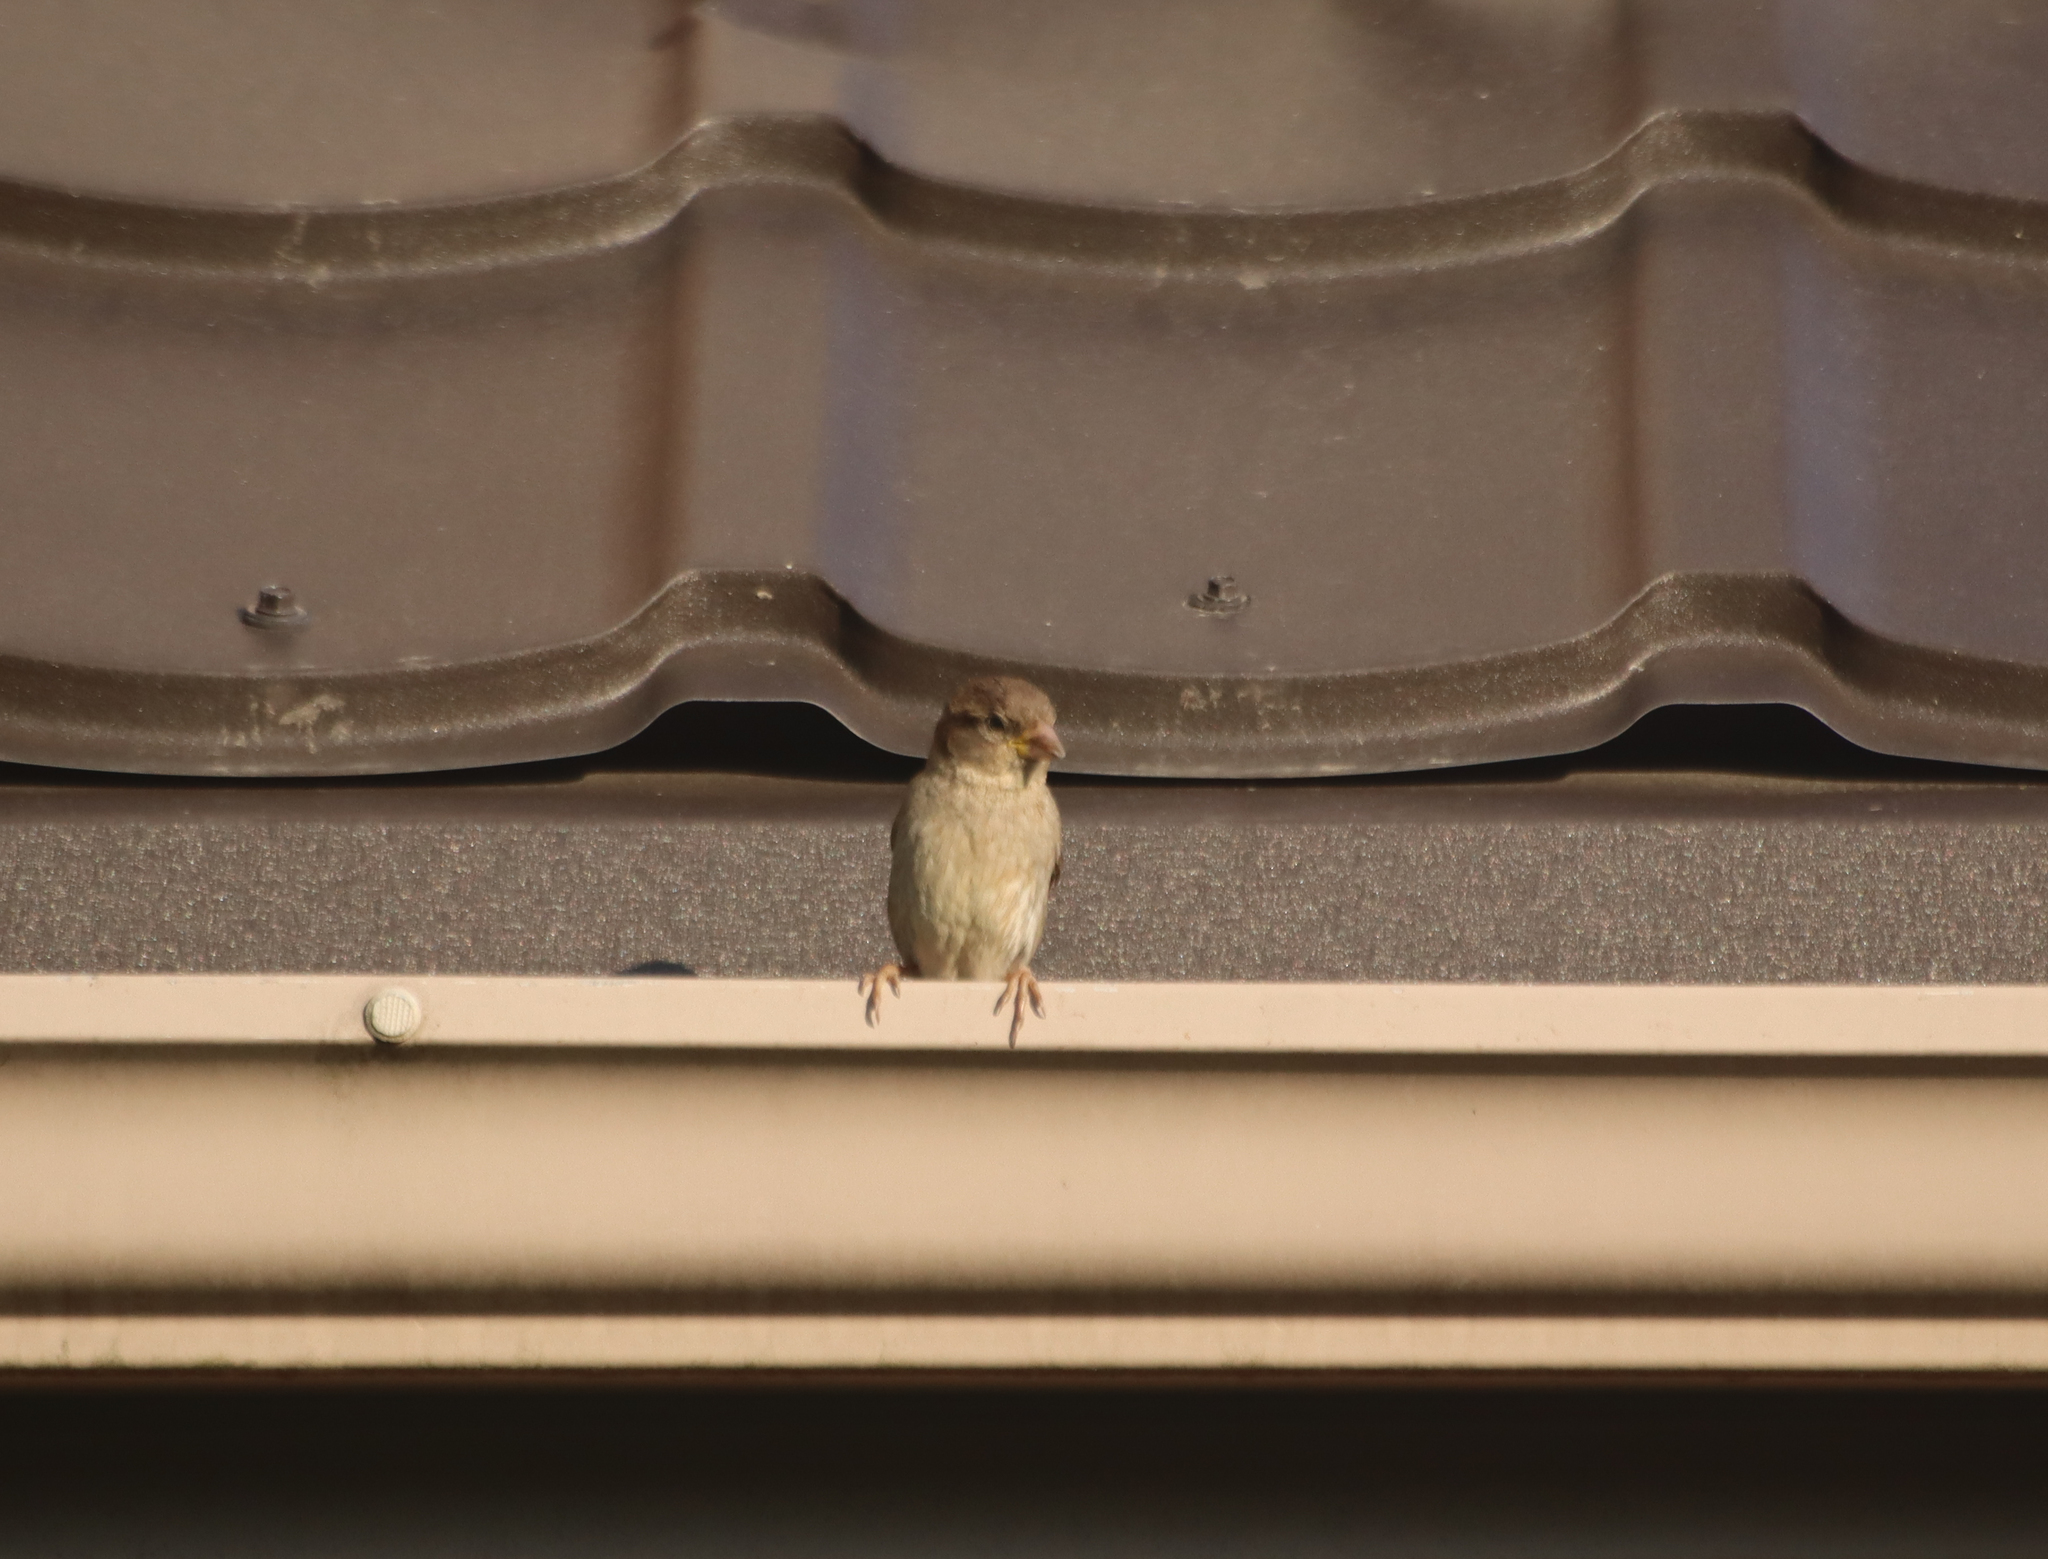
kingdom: Animalia
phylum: Chordata
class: Aves
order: Passeriformes
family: Passeridae
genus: Passer
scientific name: Passer domesticus
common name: House sparrow
